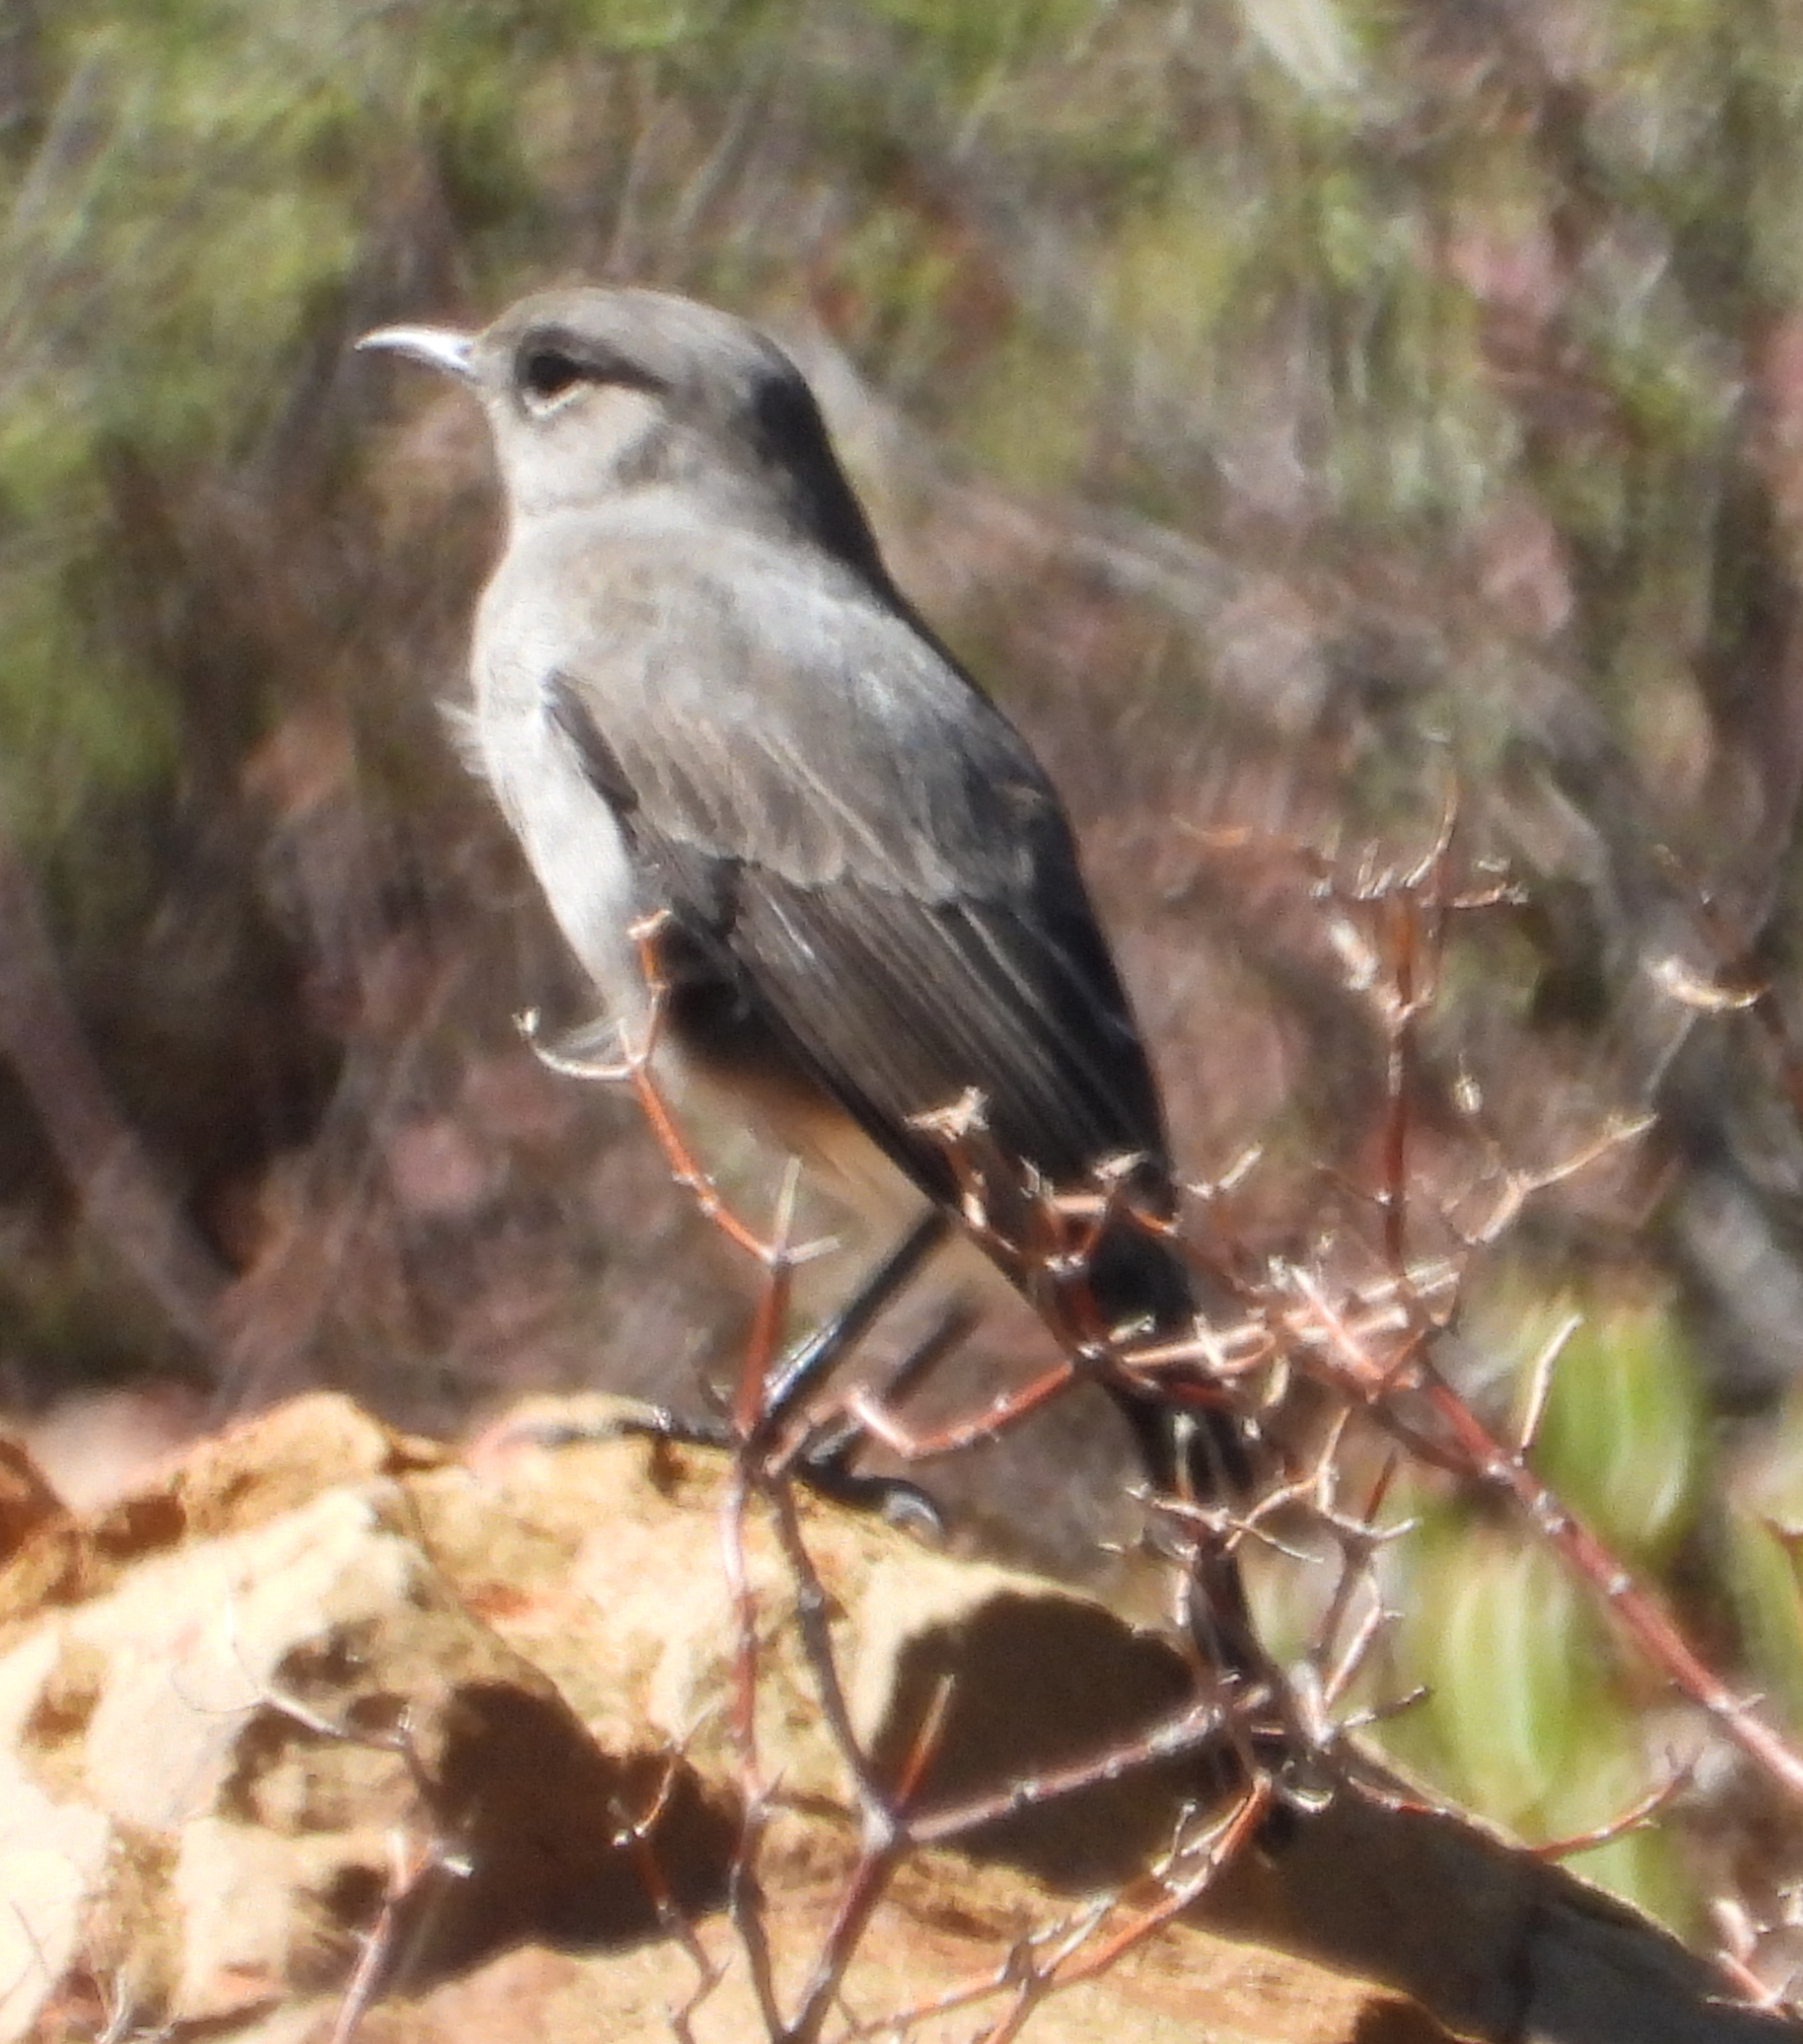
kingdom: Animalia
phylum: Chordata
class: Aves
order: Passeriformes
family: Muscicapidae
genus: Emarginata
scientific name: Emarginata schlegelii
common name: Karoo chat
